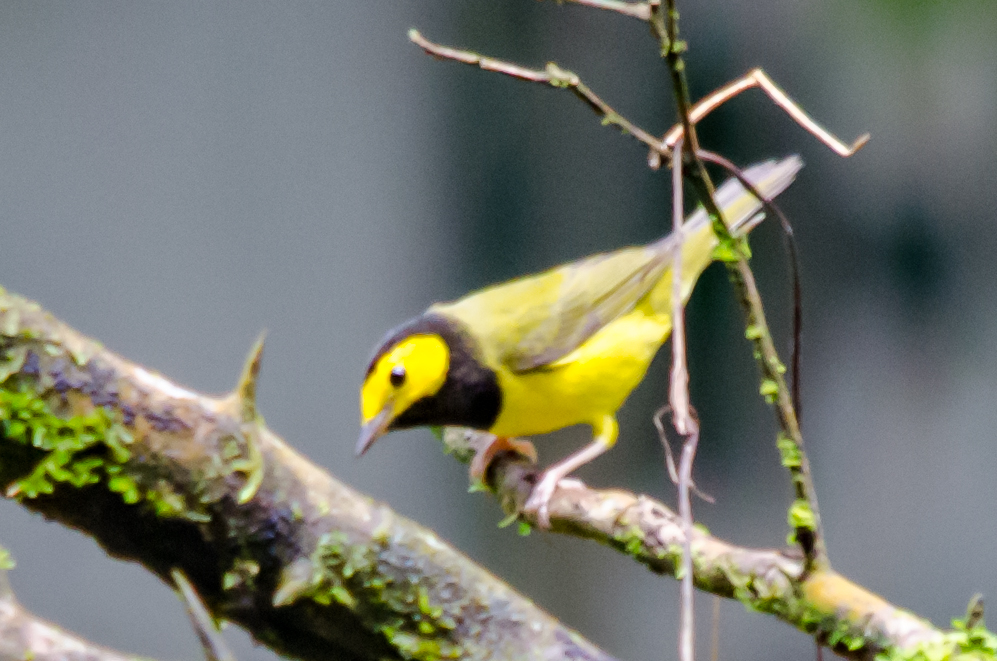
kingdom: Animalia
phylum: Chordata
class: Aves
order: Passeriformes
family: Parulidae
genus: Setophaga
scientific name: Setophaga citrina
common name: Hooded warbler
